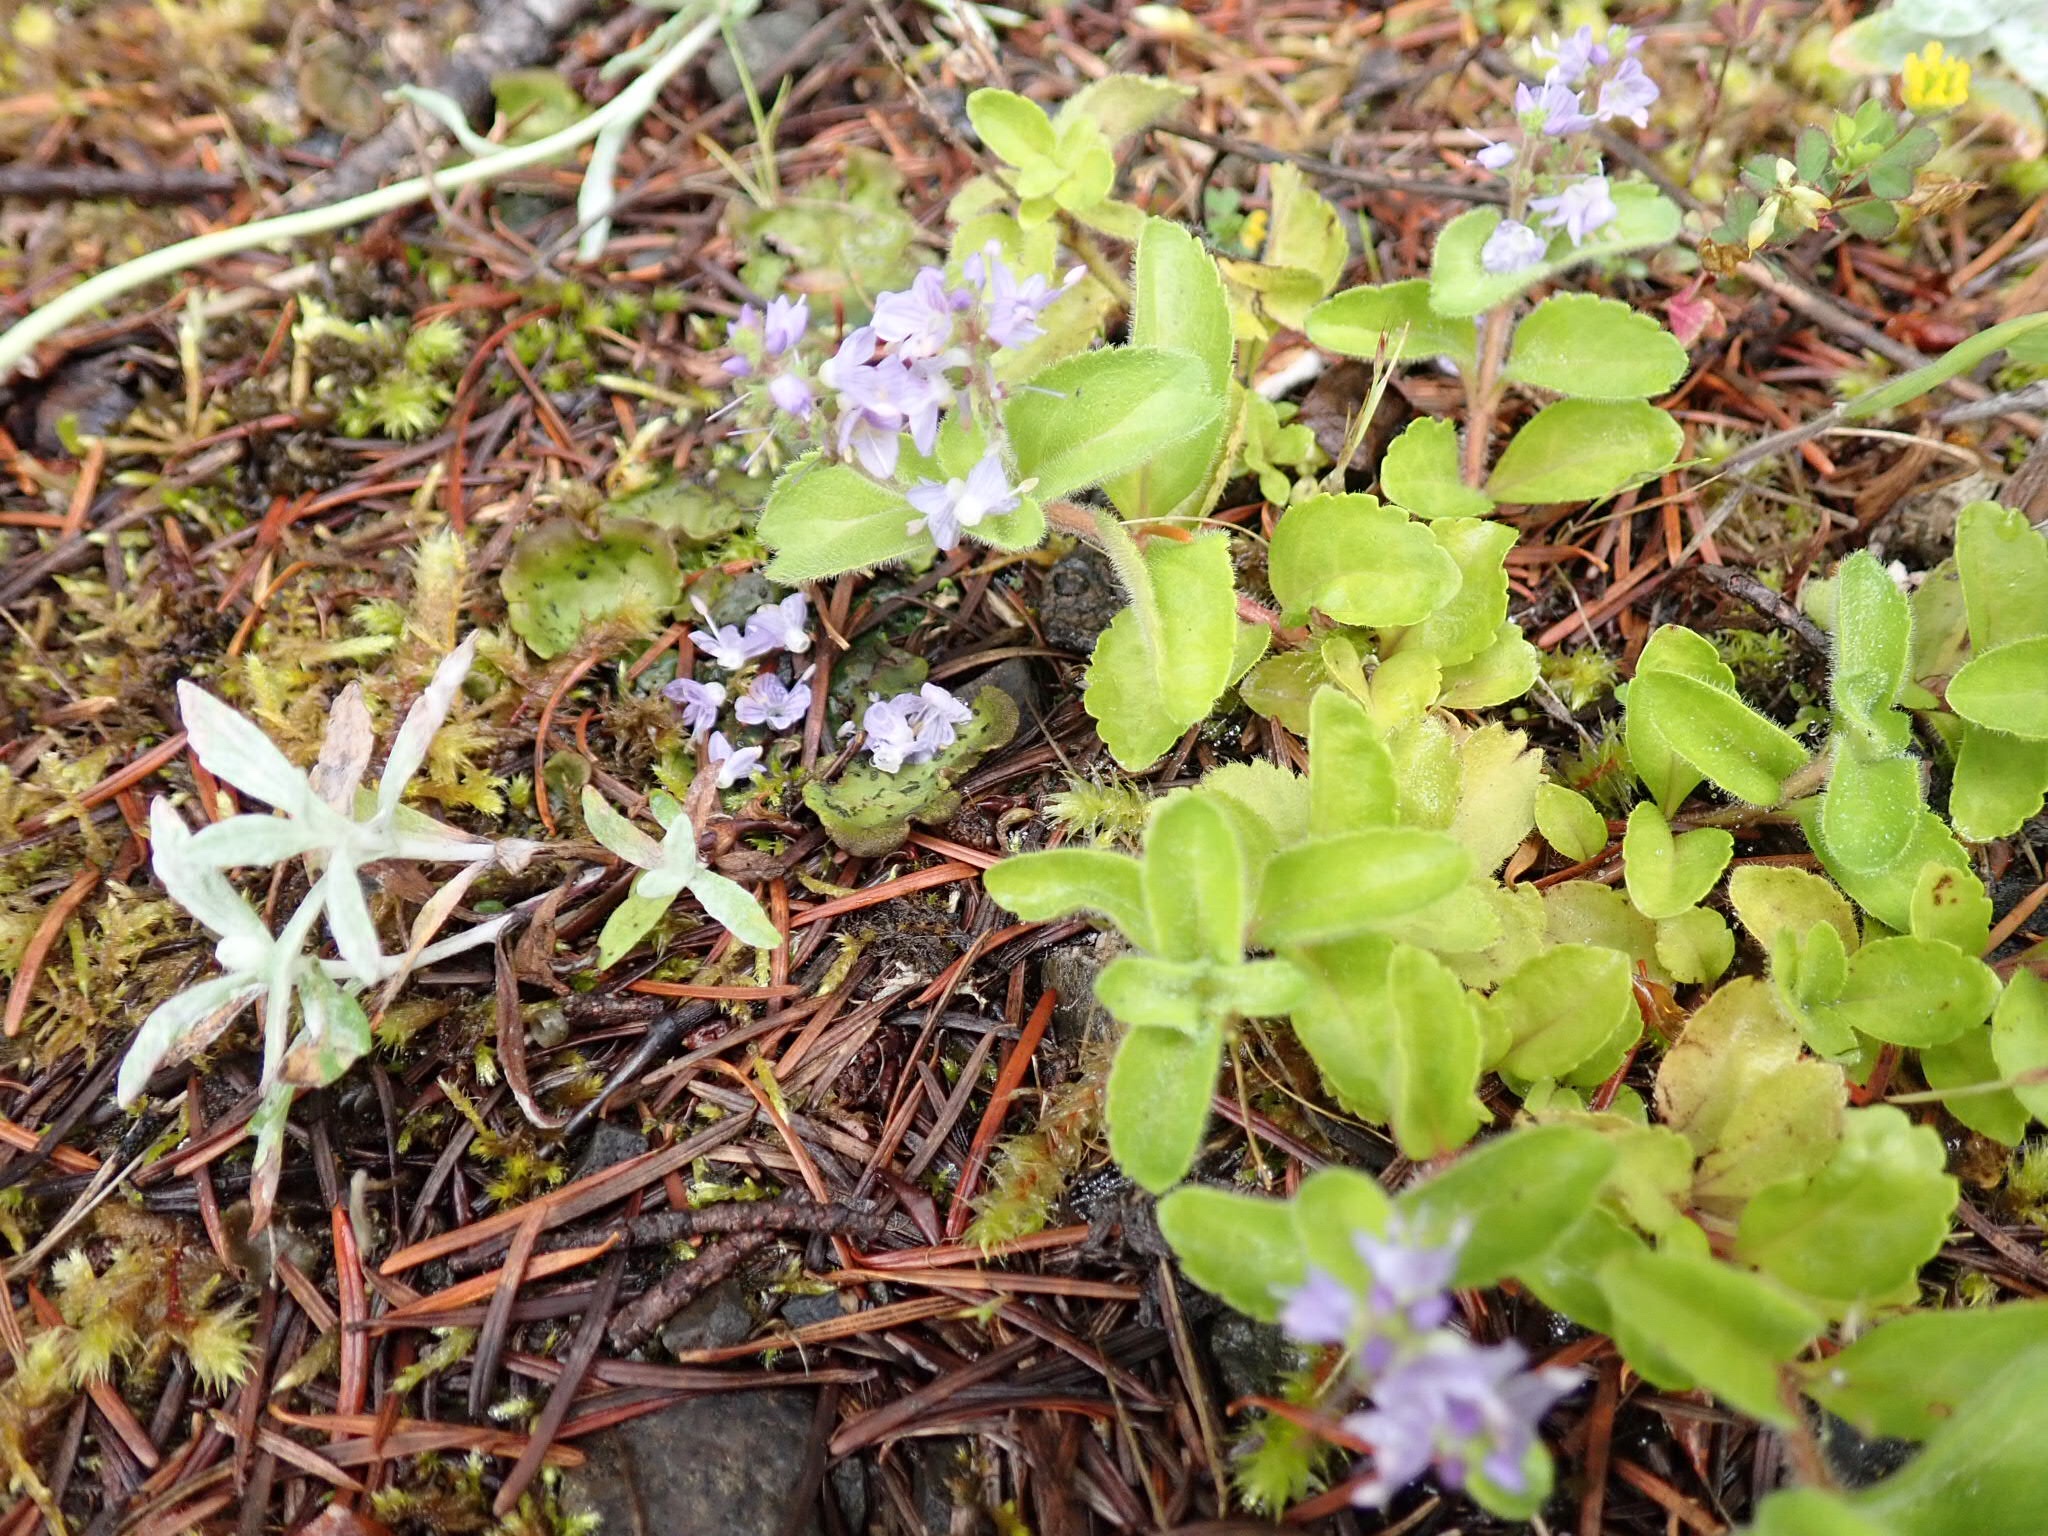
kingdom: Plantae
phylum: Tracheophyta
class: Magnoliopsida
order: Lamiales
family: Plantaginaceae
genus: Veronica
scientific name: Veronica officinalis
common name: Common speedwell
